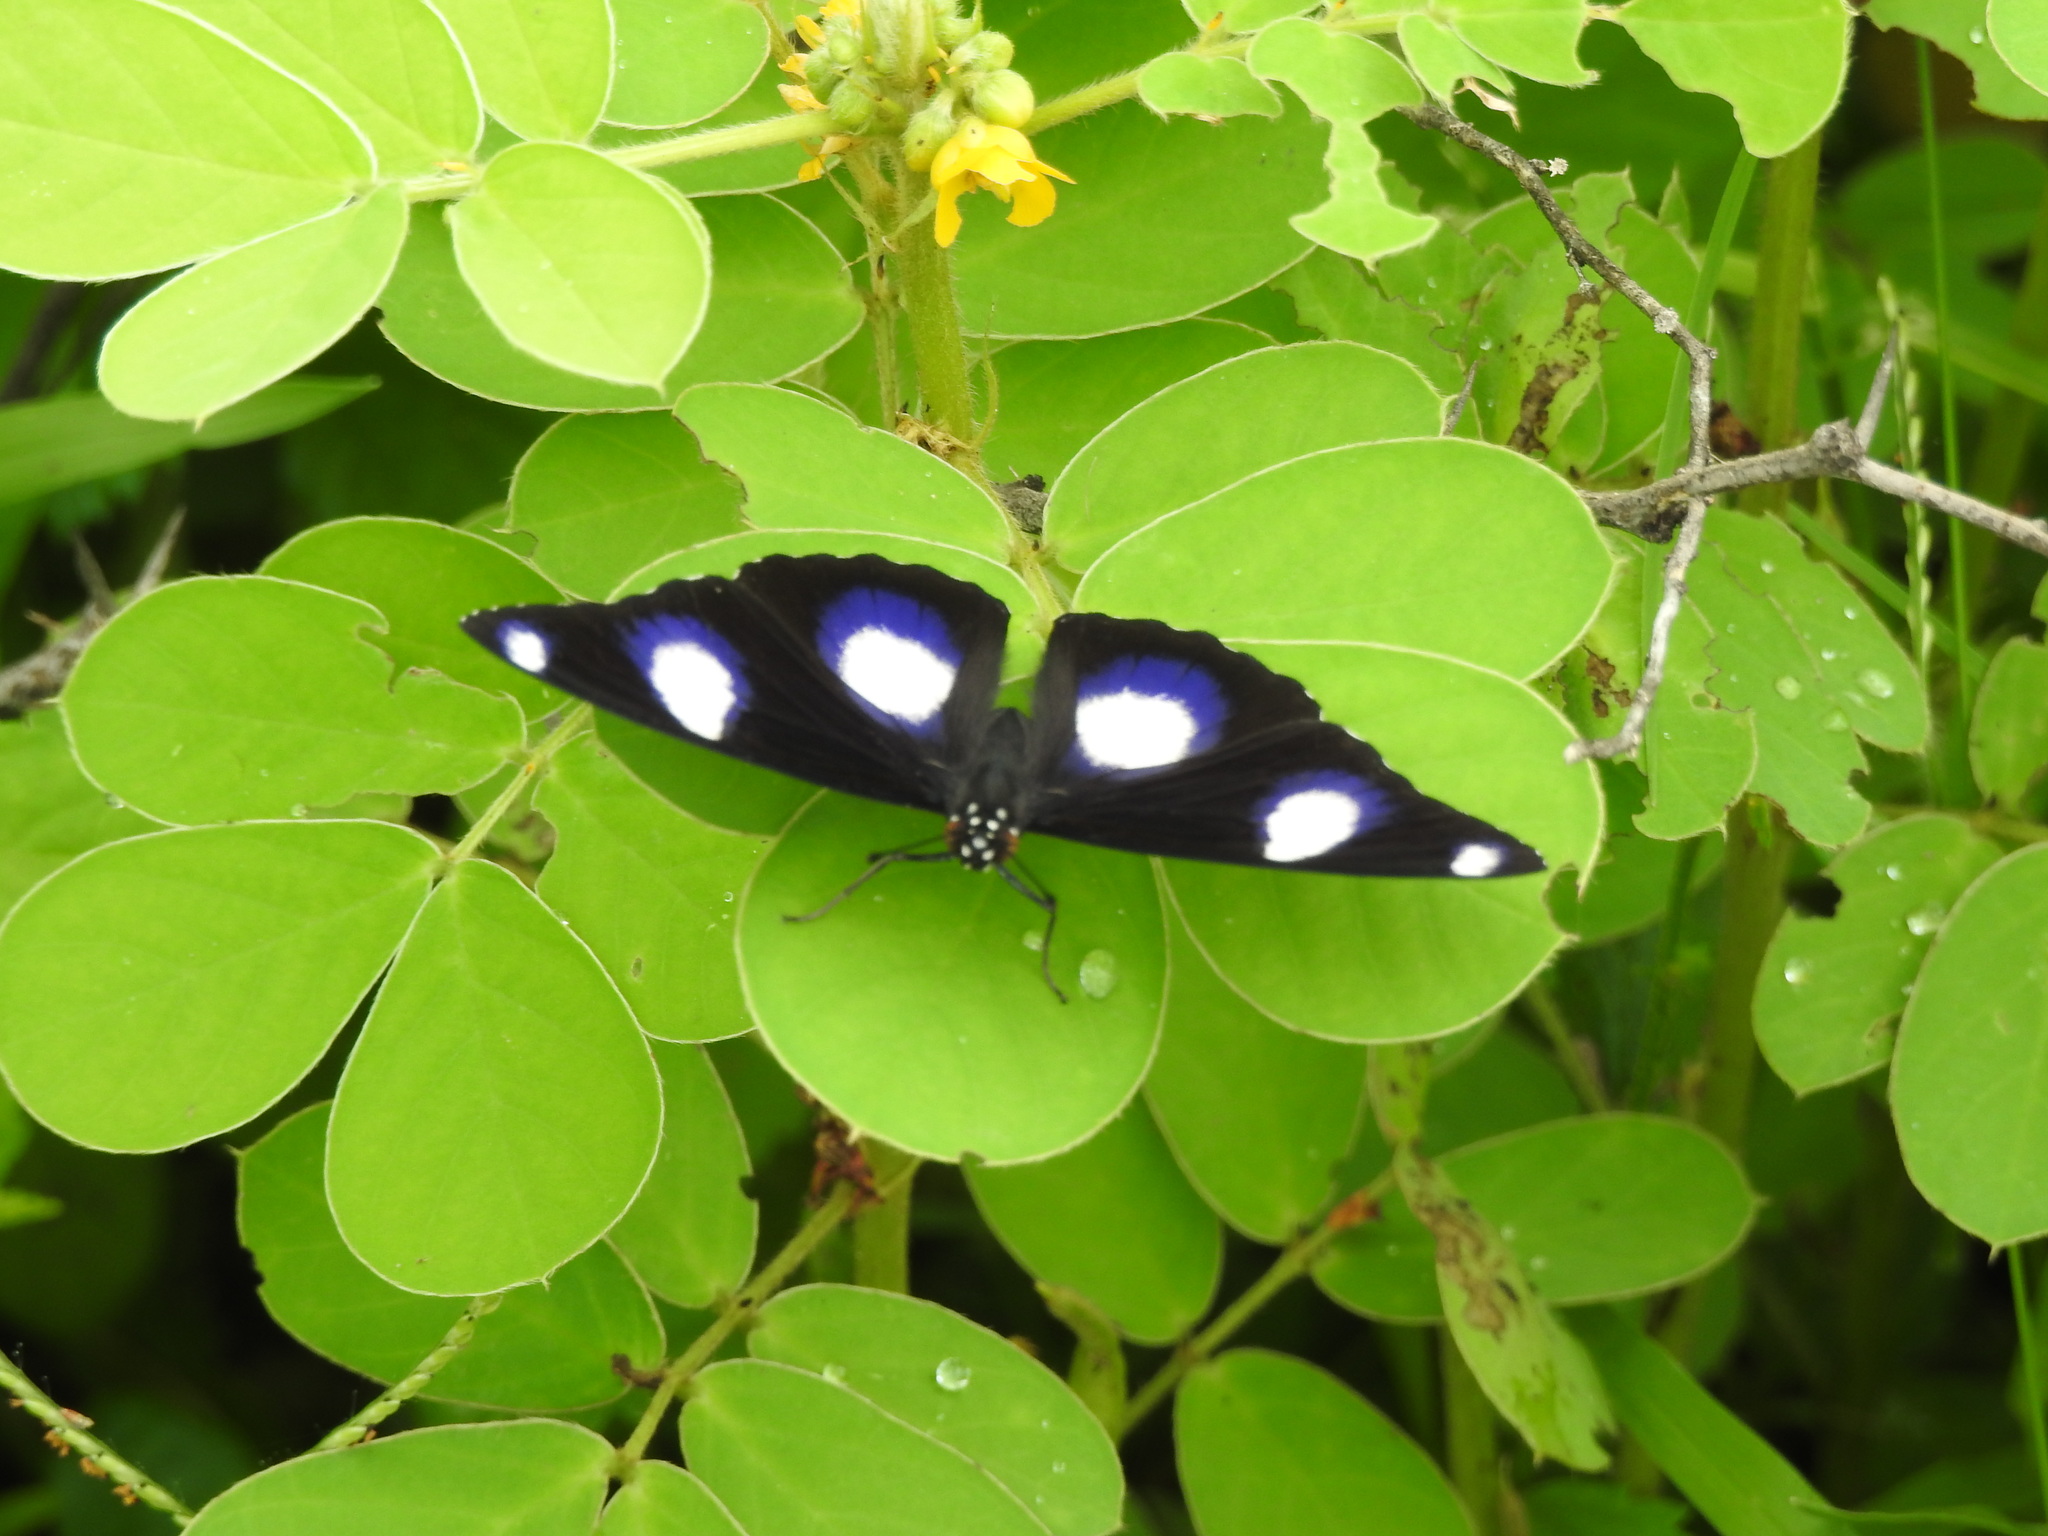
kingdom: Animalia
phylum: Arthropoda
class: Insecta
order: Lepidoptera
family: Nymphalidae
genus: Hypolimnas
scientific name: Hypolimnas misippus
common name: False plain tiger
